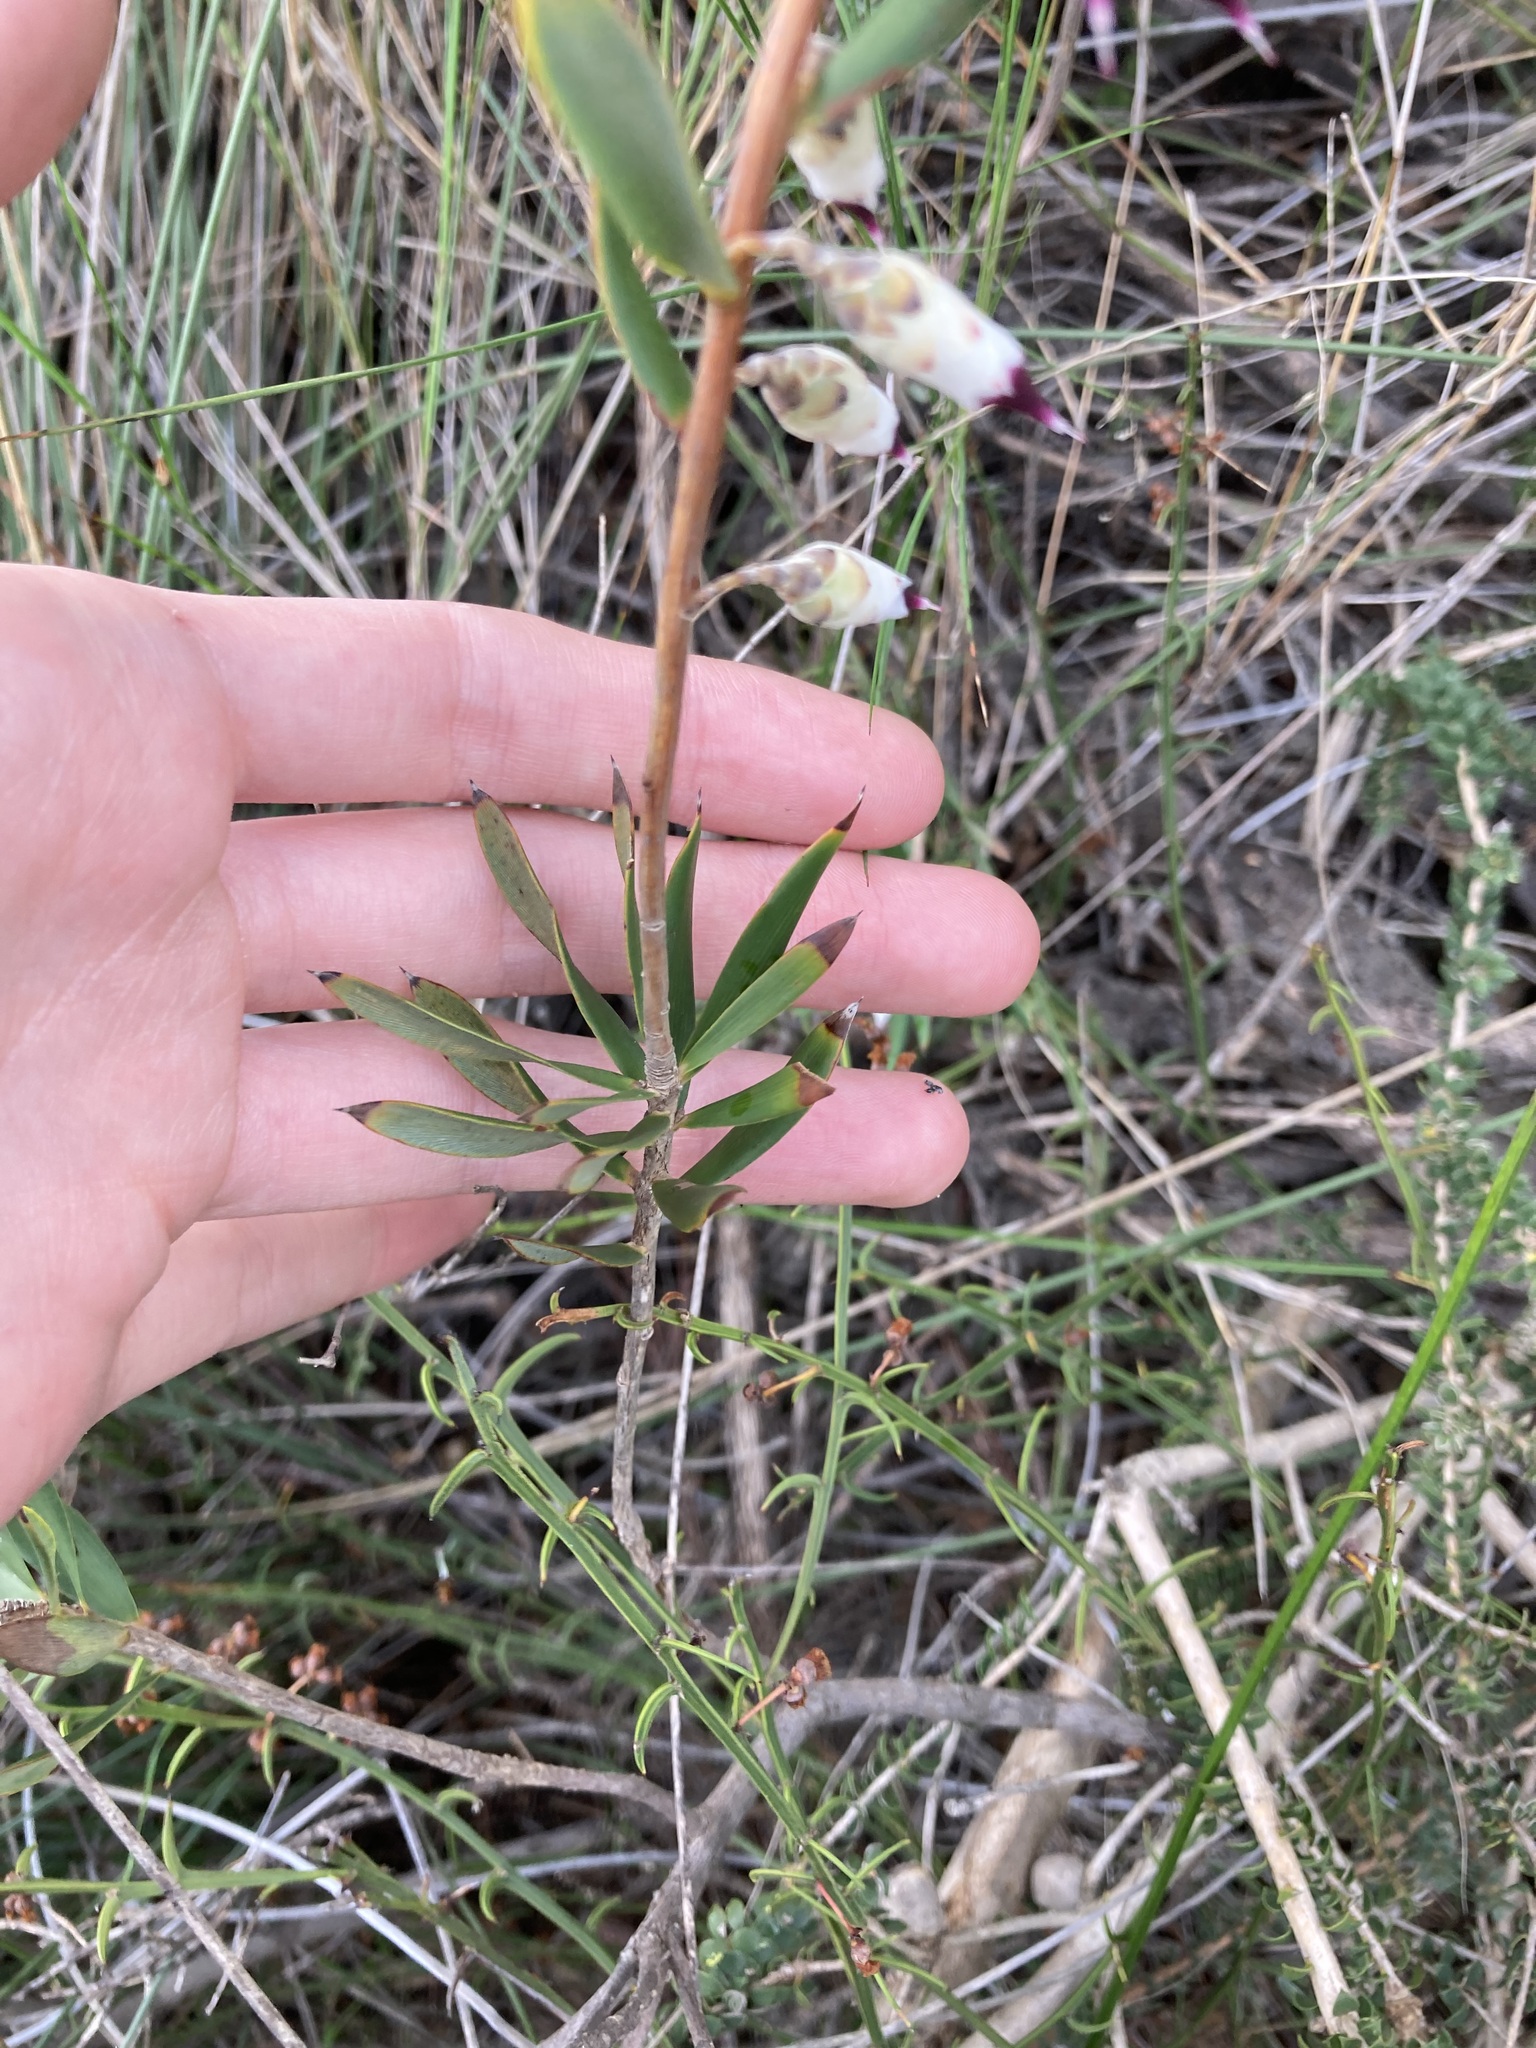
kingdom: Plantae
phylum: Tracheophyta
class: Magnoliopsida
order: Ericales
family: Ericaceae
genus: Conostephium
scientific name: Conostephium pendulum
